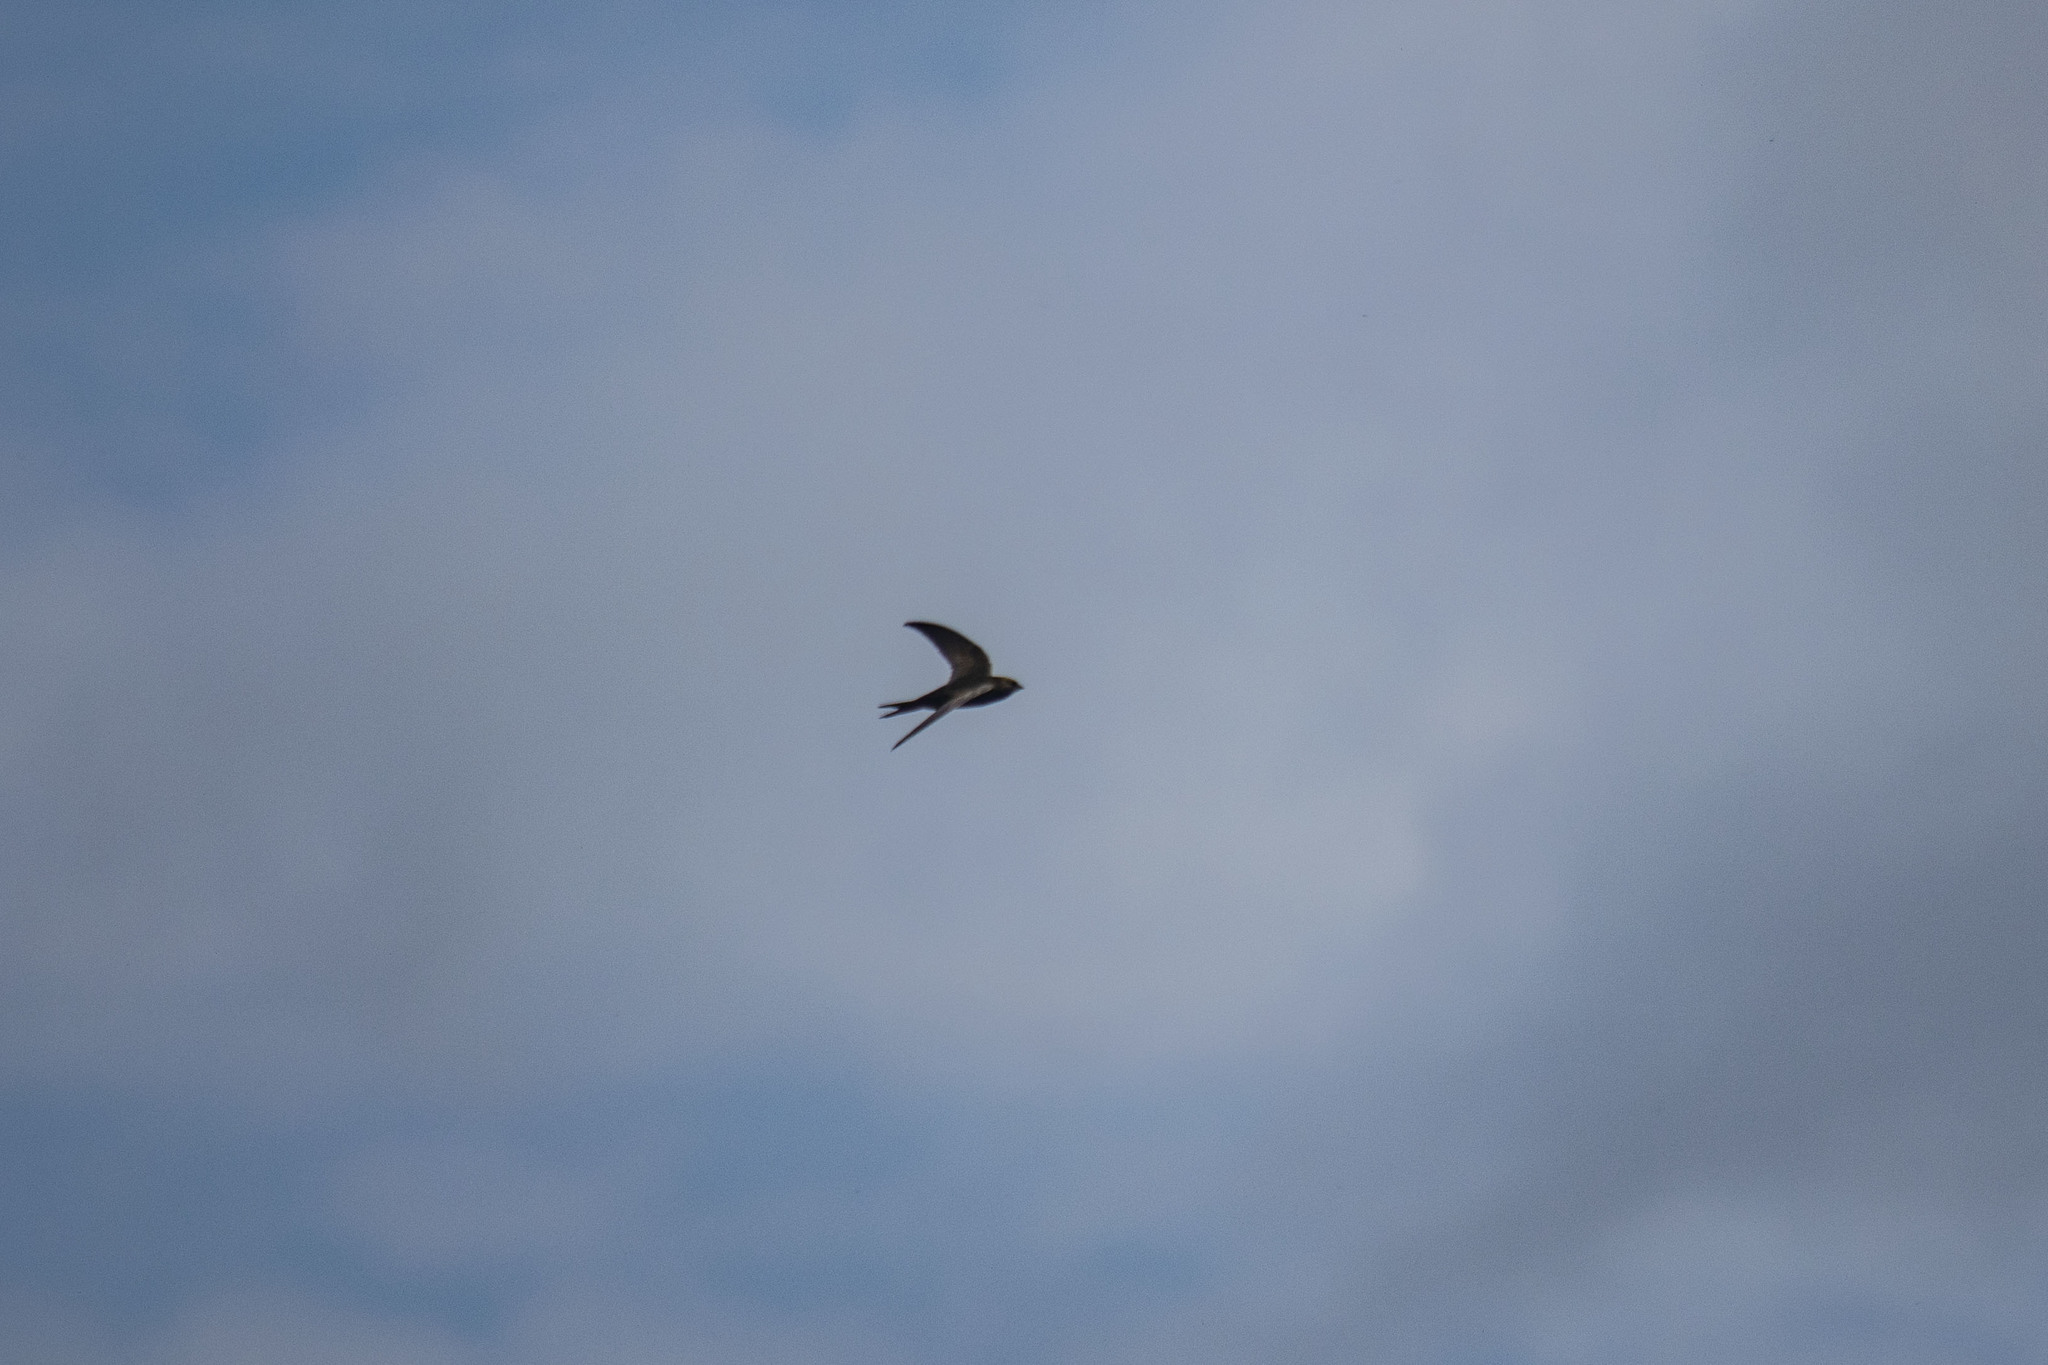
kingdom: Animalia
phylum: Chordata
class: Aves
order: Apodiformes
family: Apodidae
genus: Apus
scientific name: Apus apus
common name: Common swift
